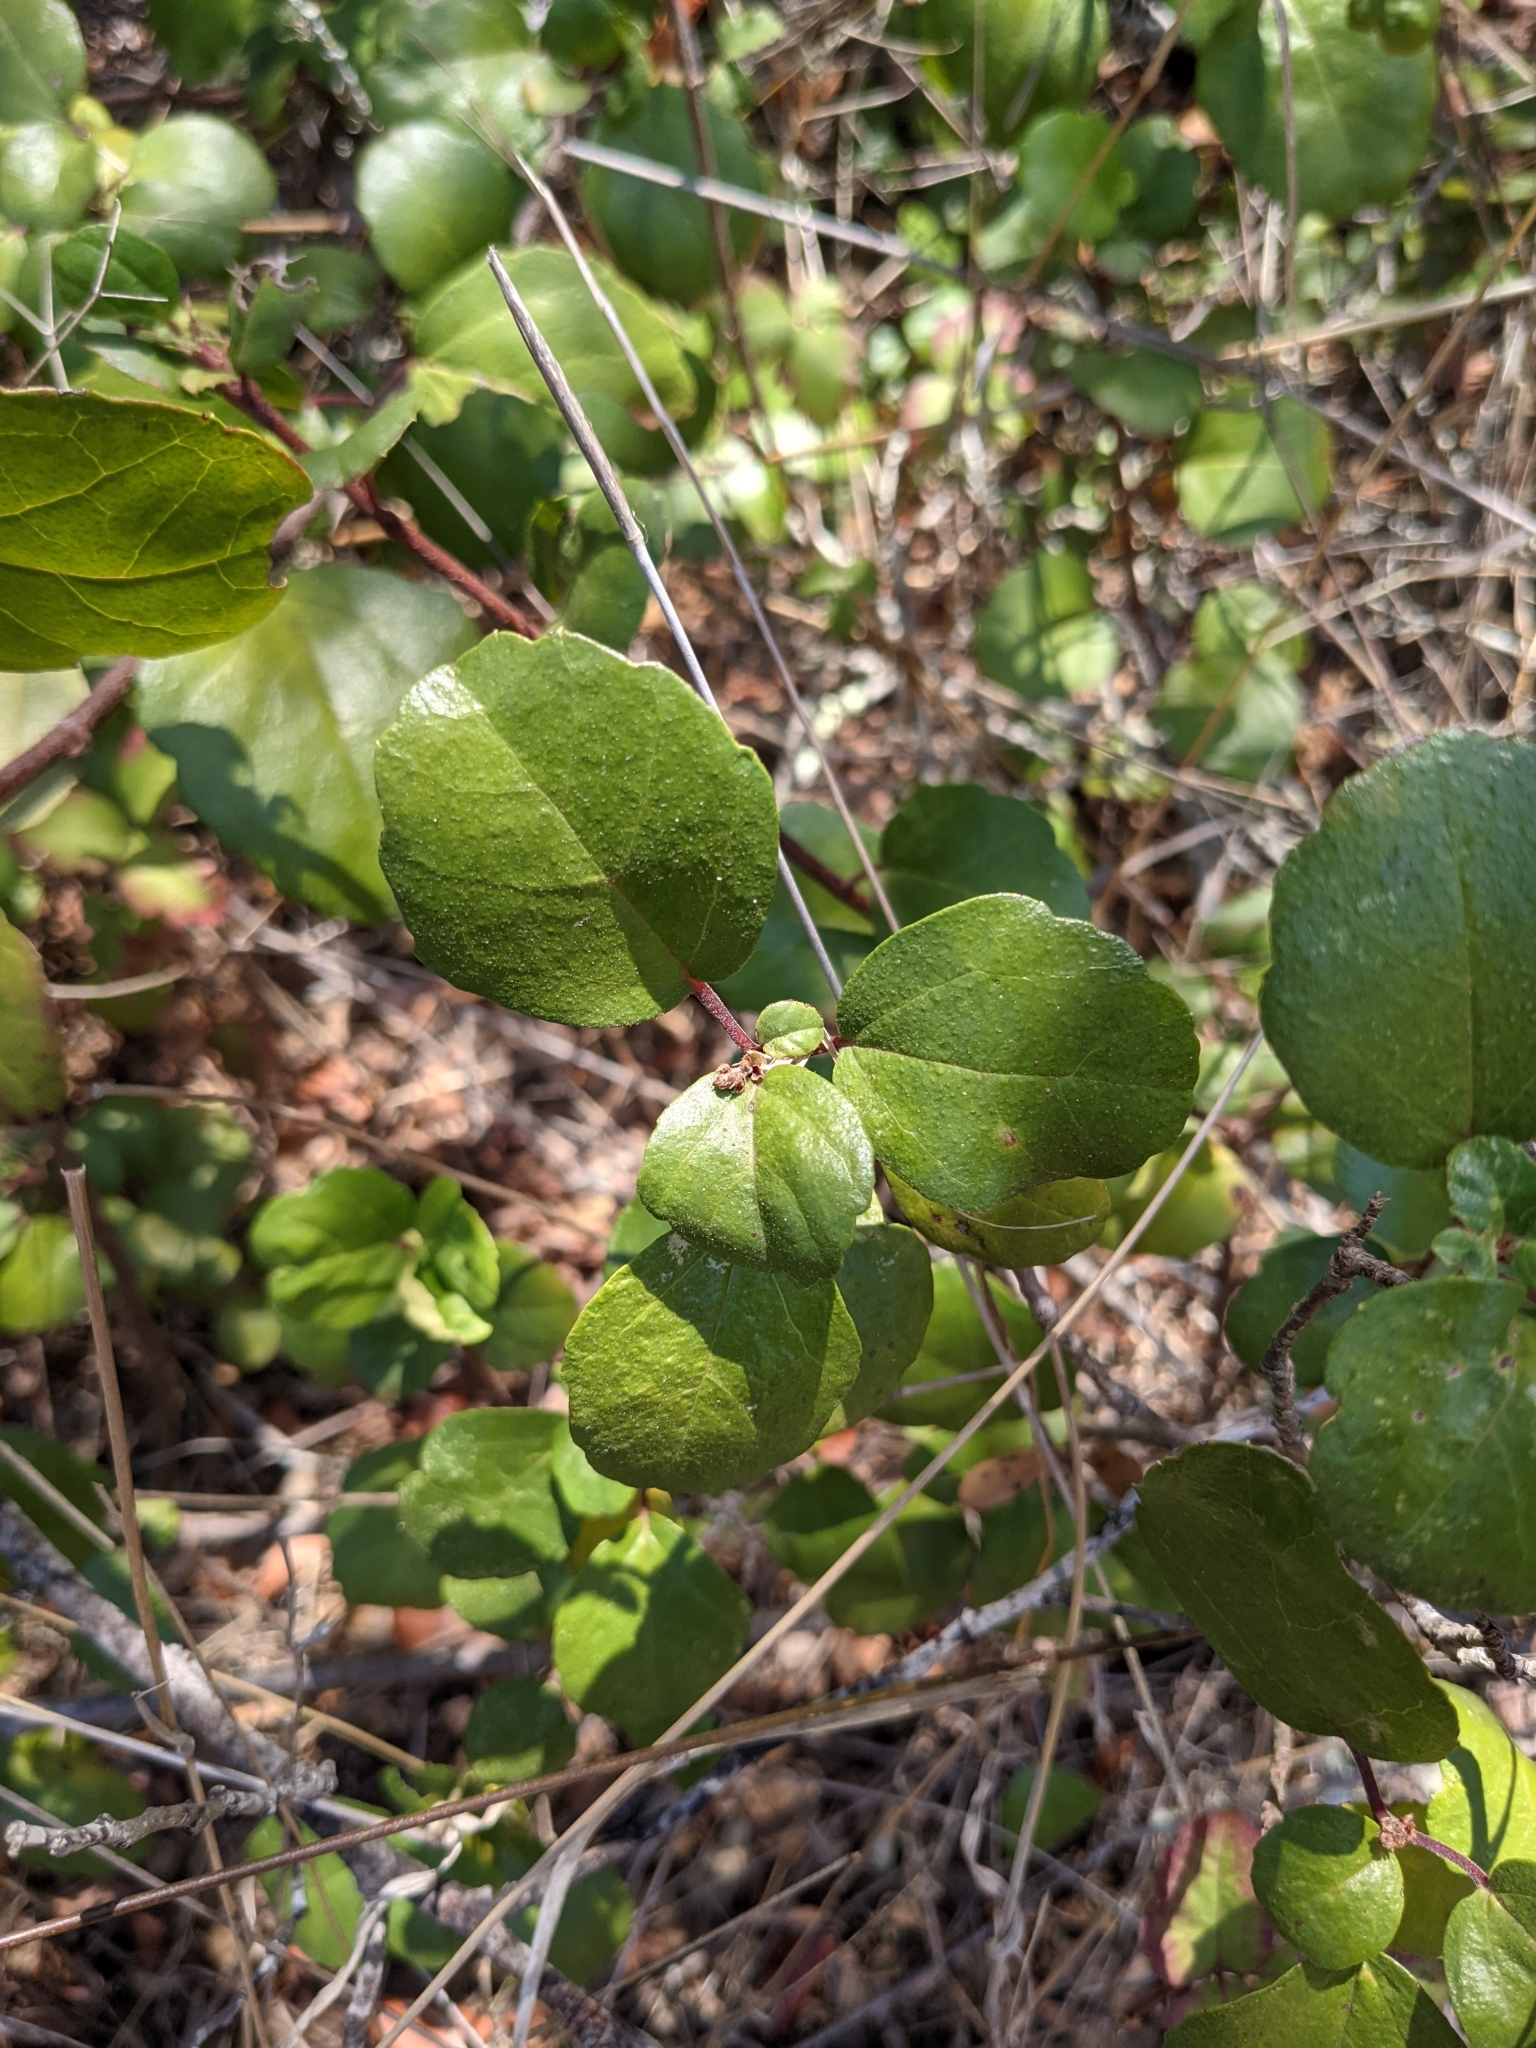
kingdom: Plantae
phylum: Tracheophyta
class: Magnoliopsida
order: Saxifragales
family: Grossulariaceae
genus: Ribes
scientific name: Ribes viburnifolium
